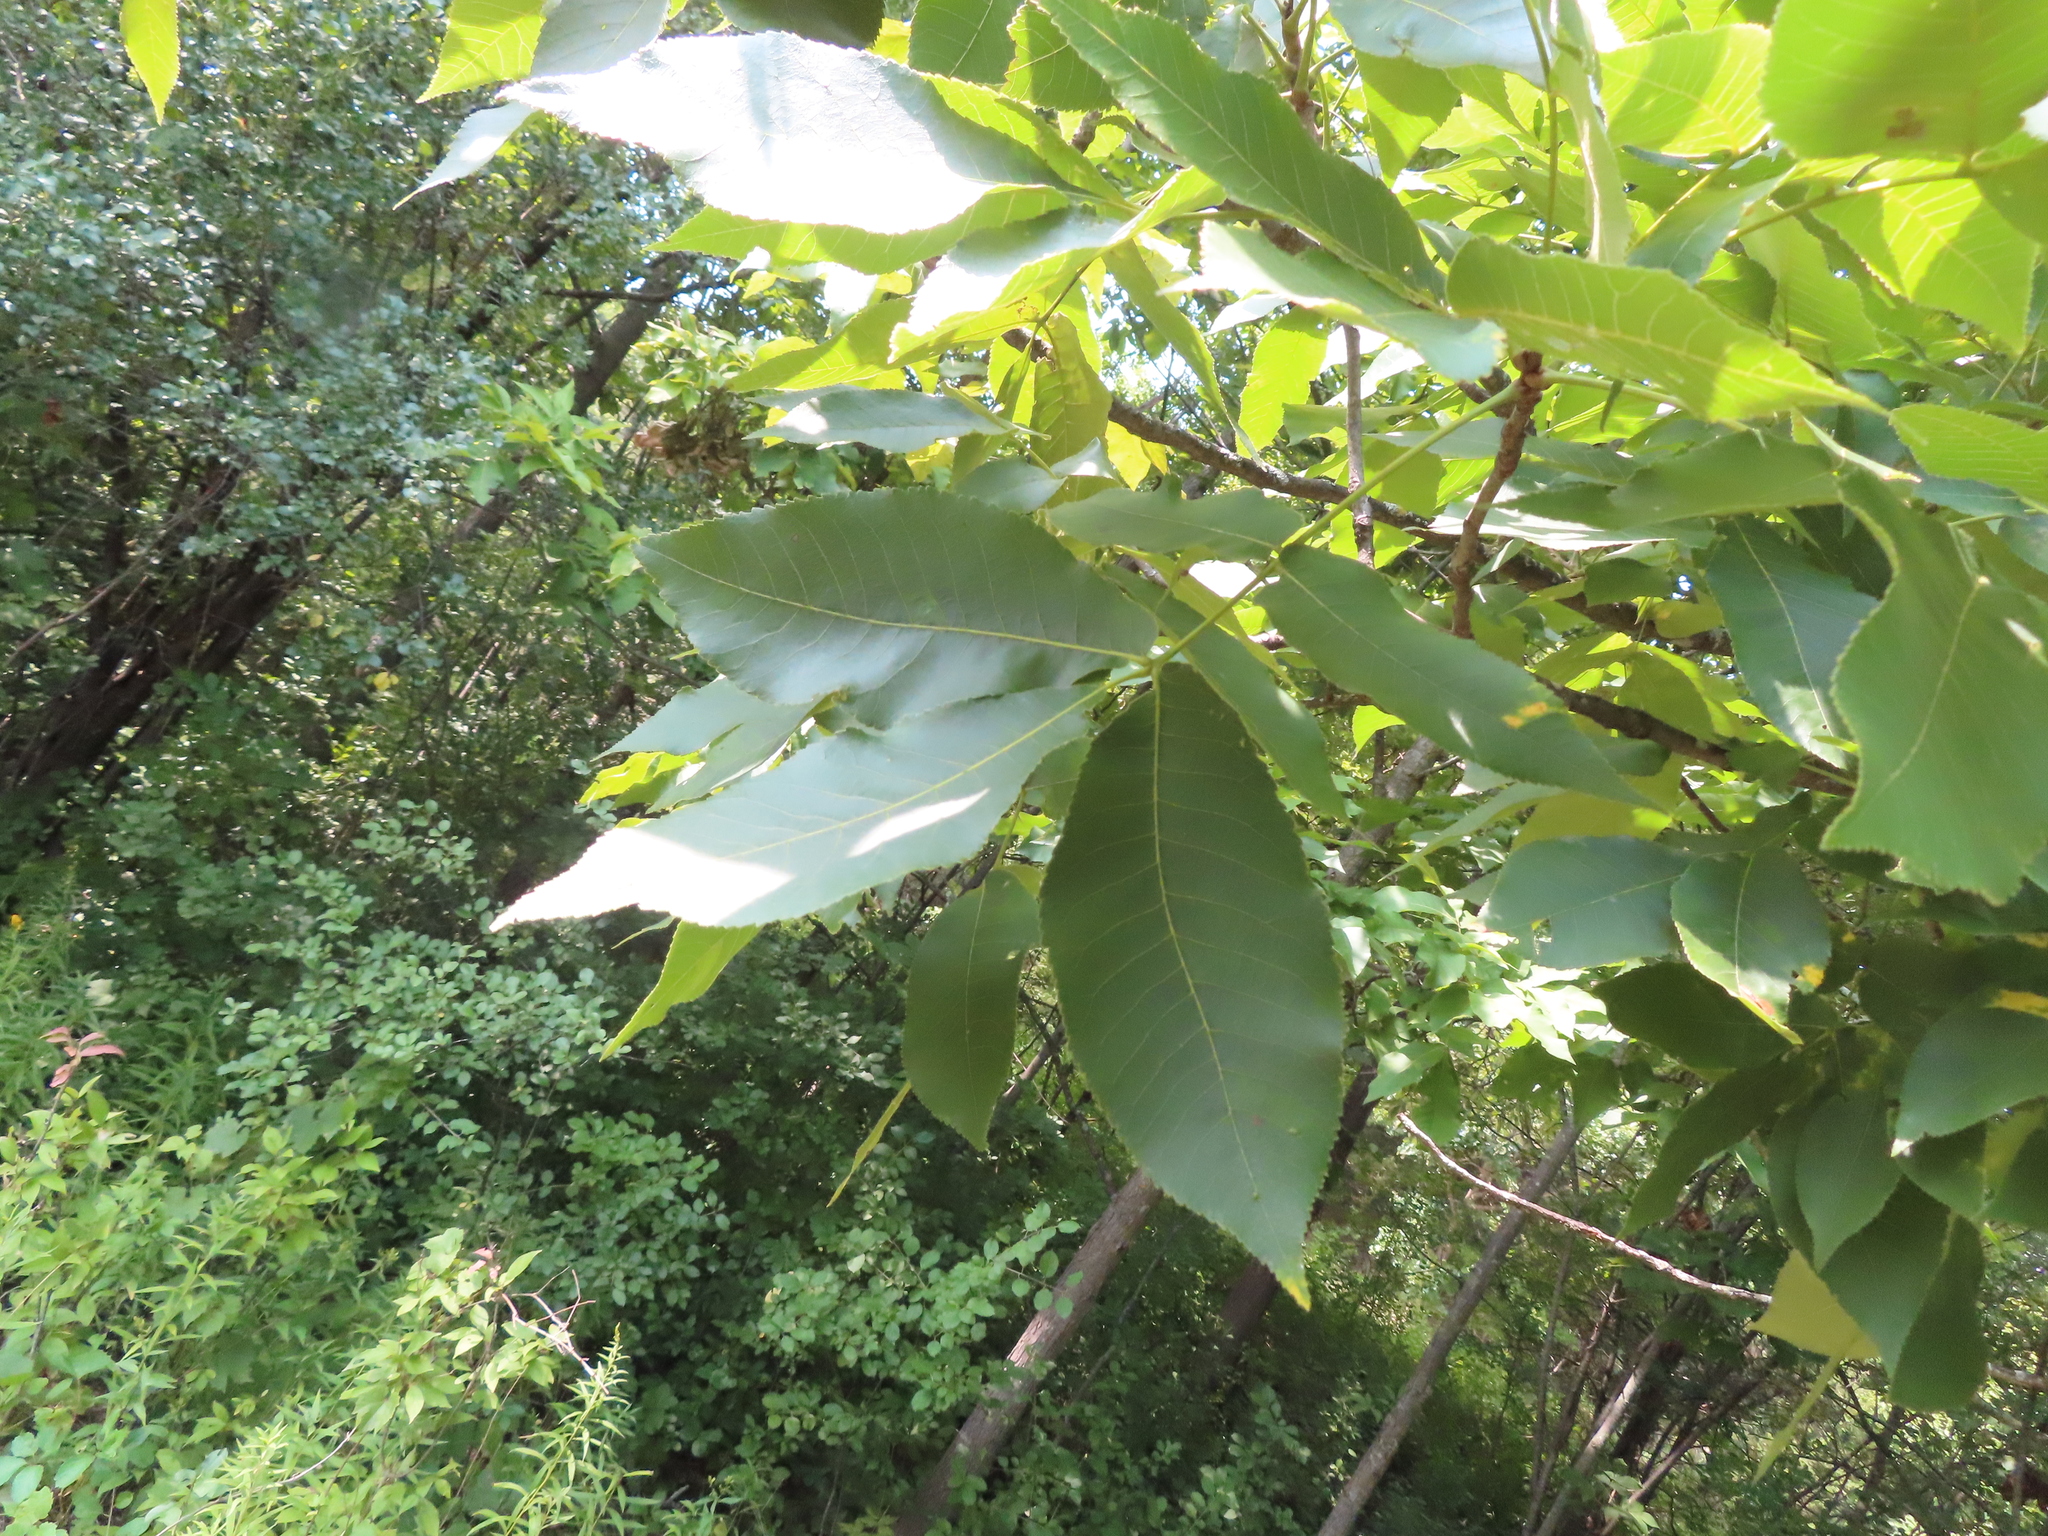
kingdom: Plantae
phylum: Tracheophyta
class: Magnoliopsida
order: Fagales
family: Juglandaceae
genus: Carya
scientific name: Carya ovata
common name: Shagbark hickory
